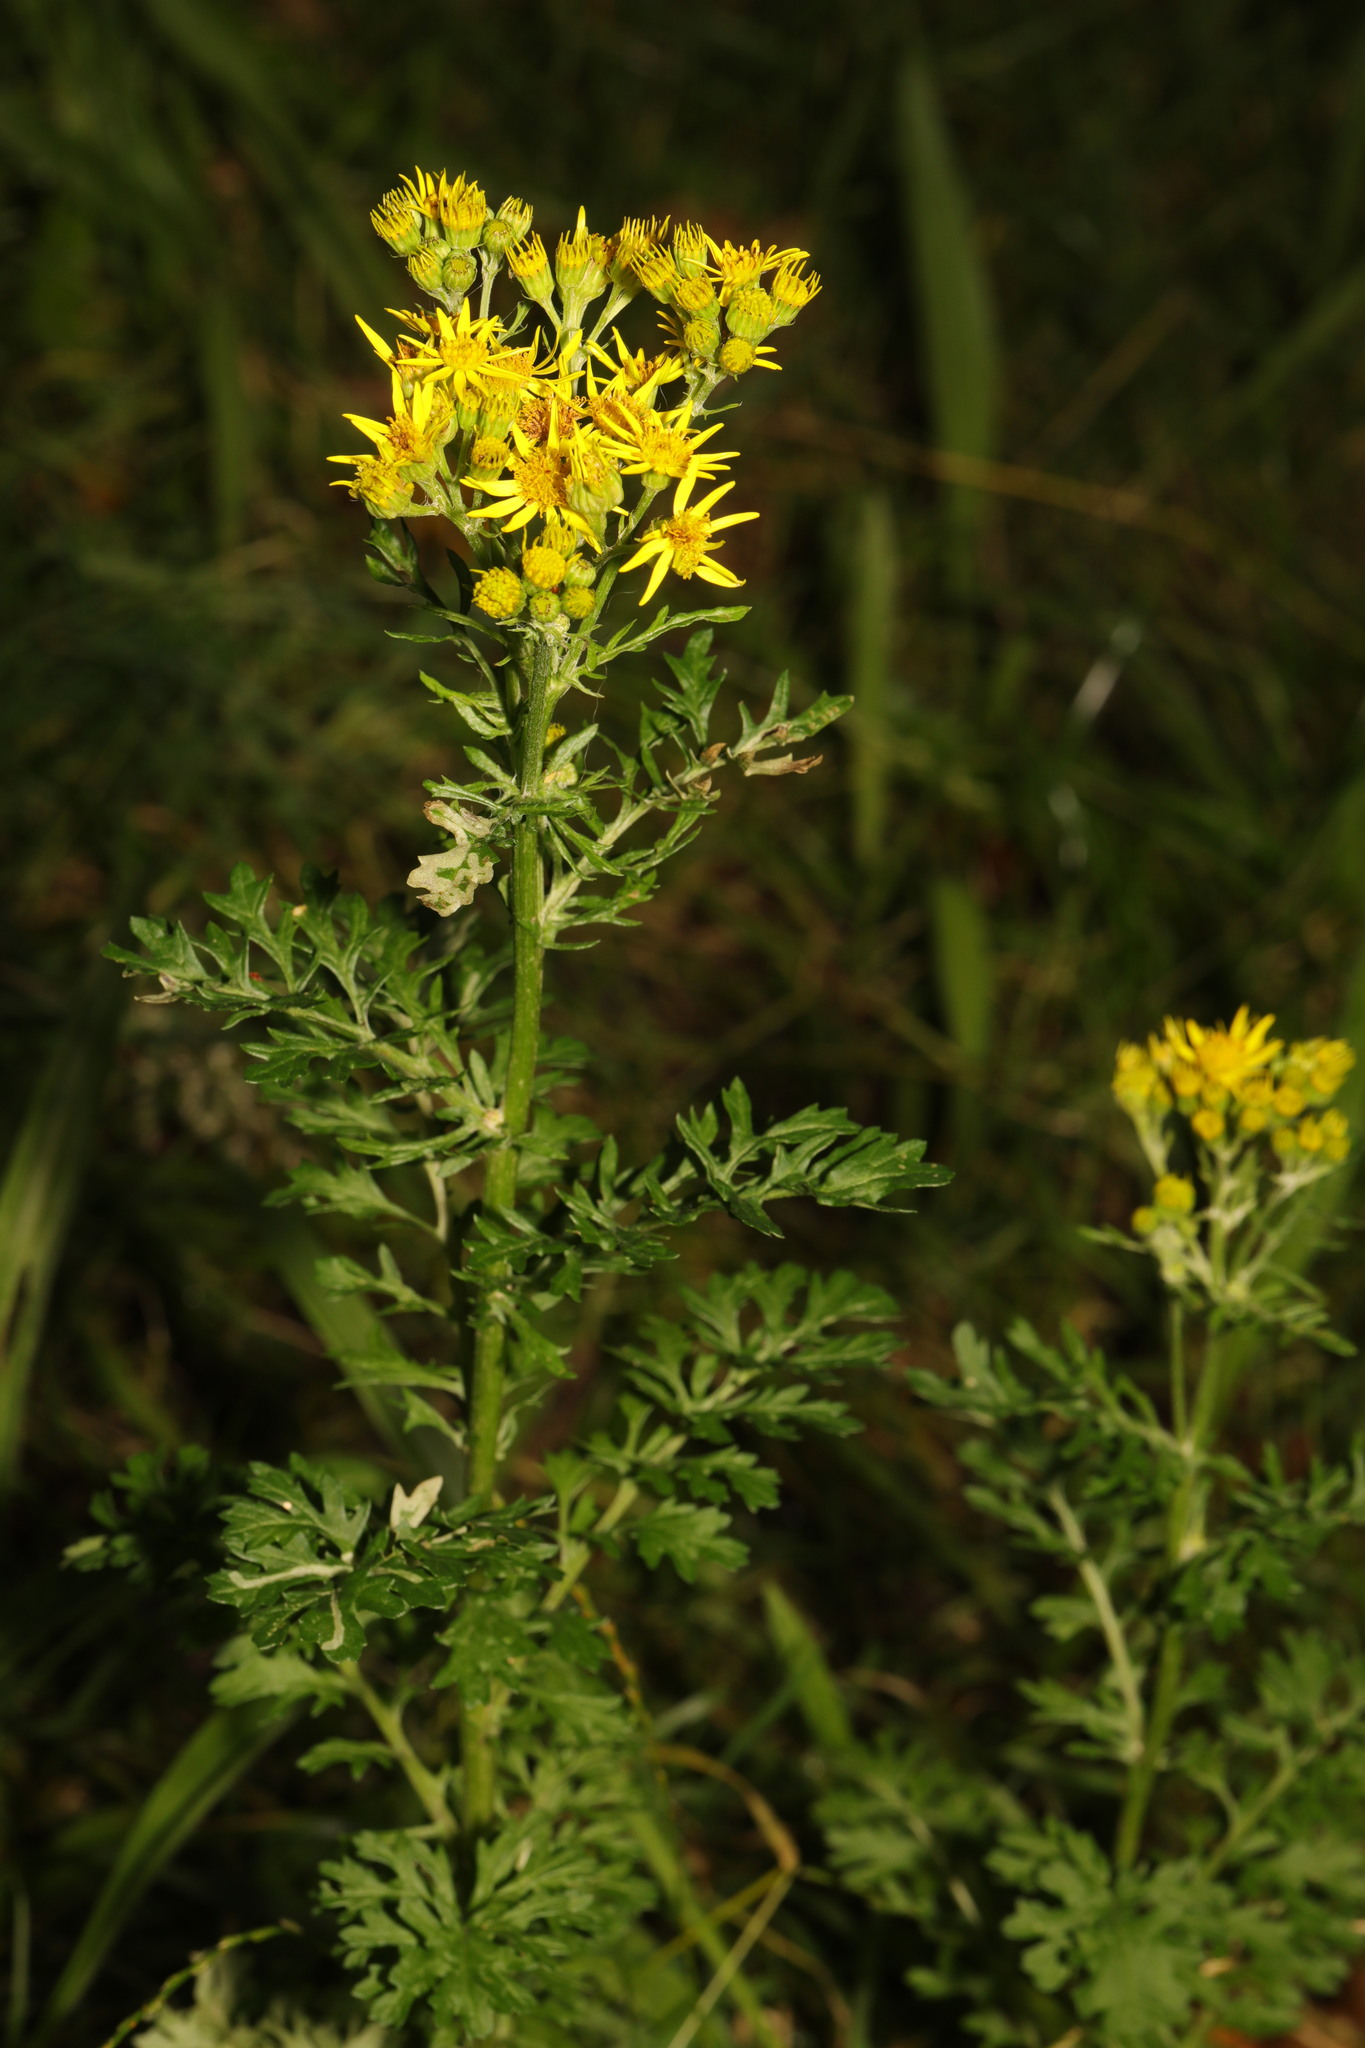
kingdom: Plantae
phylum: Tracheophyta
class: Magnoliopsida
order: Asterales
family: Asteraceae
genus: Jacobaea
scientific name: Jacobaea vulgaris
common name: Stinking willie
